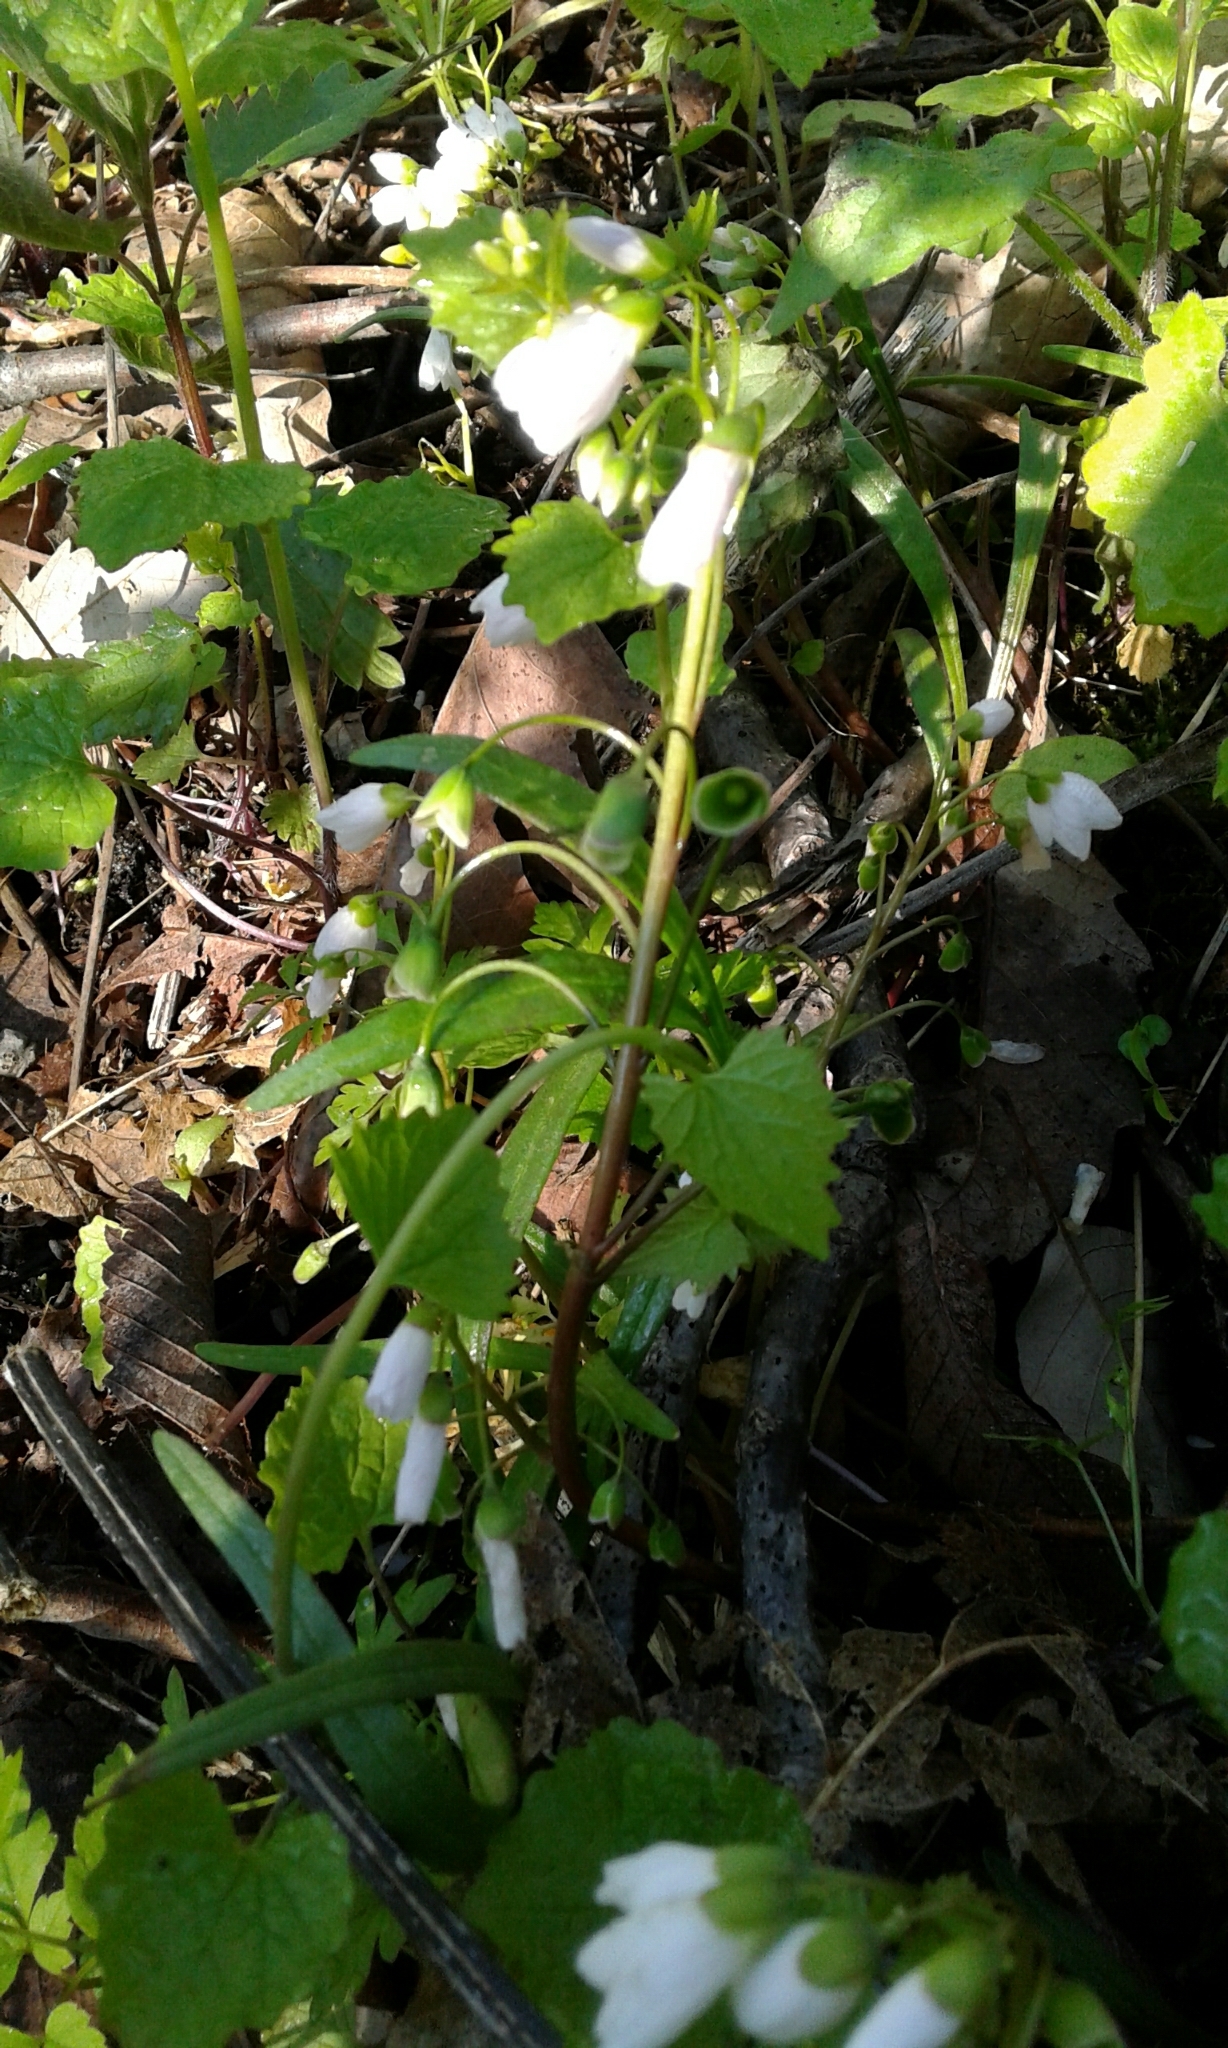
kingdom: Plantae
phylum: Tracheophyta
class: Magnoliopsida
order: Brassicales
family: Brassicaceae
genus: Cardamine
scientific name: Cardamine bulbosa
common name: Spring cress
